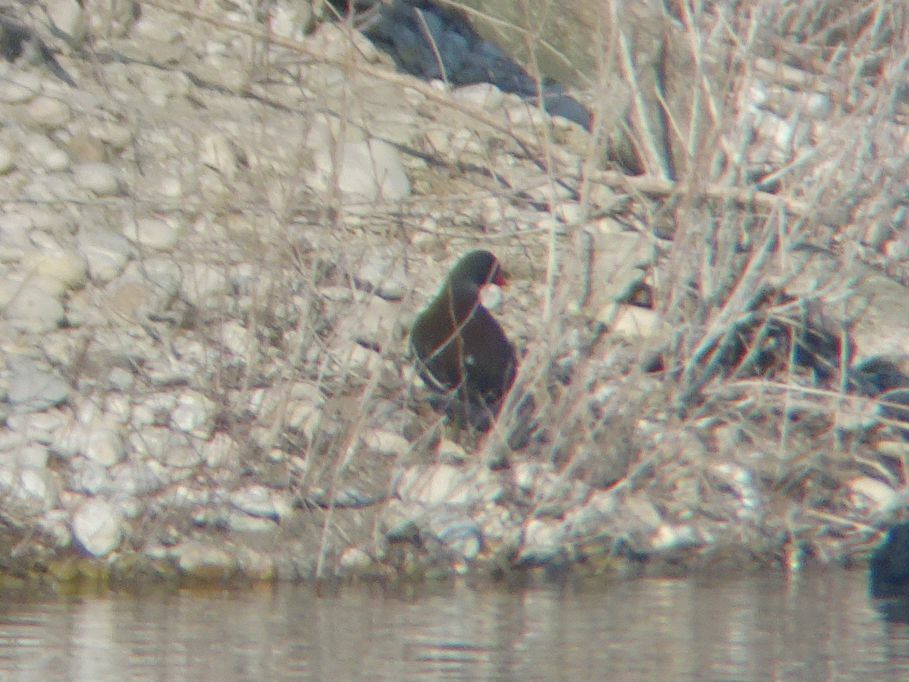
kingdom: Animalia
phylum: Chordata
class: Aves
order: Gruiformes
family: Rallidae
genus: Gallinula
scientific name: Gallinula chloropus
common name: Common moorhen
